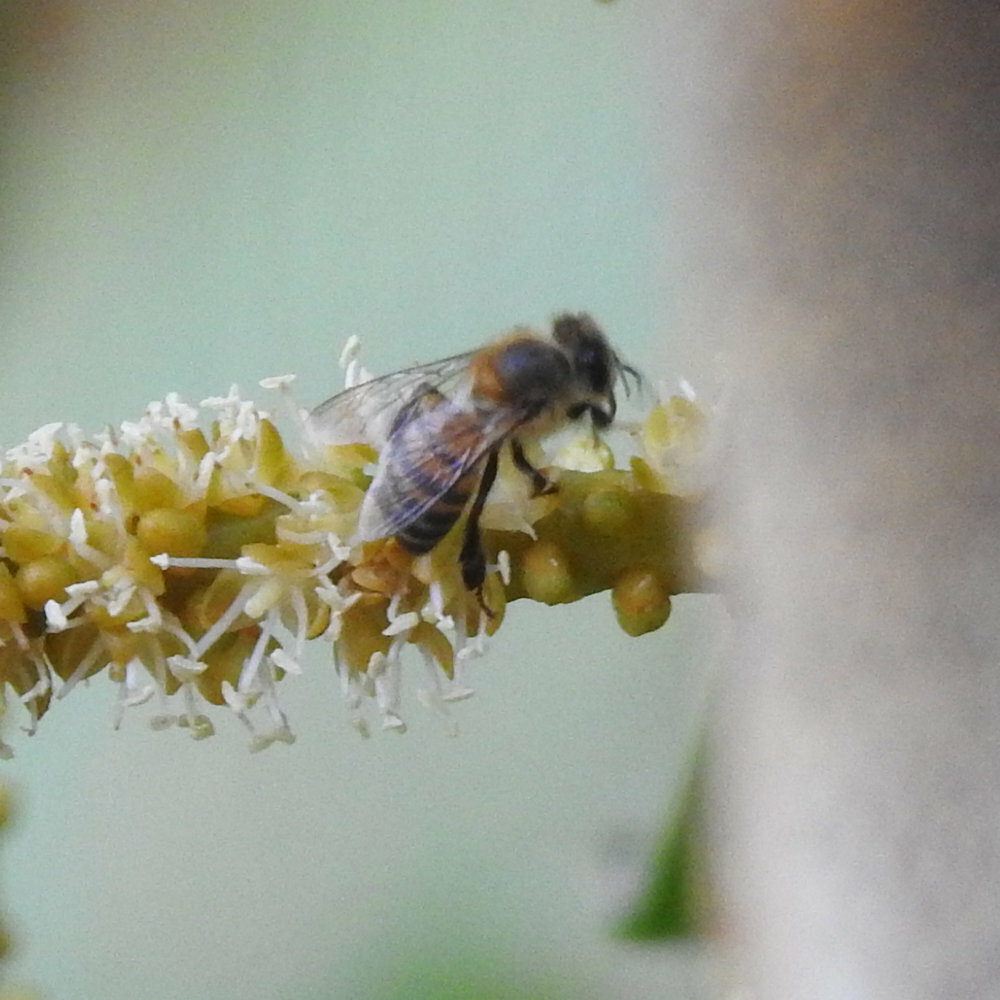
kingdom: Animalia
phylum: Arthropoda
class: Insecta
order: Hymenoptera
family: Apidae
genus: Apis
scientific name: Apis mellifera
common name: Honey bee
